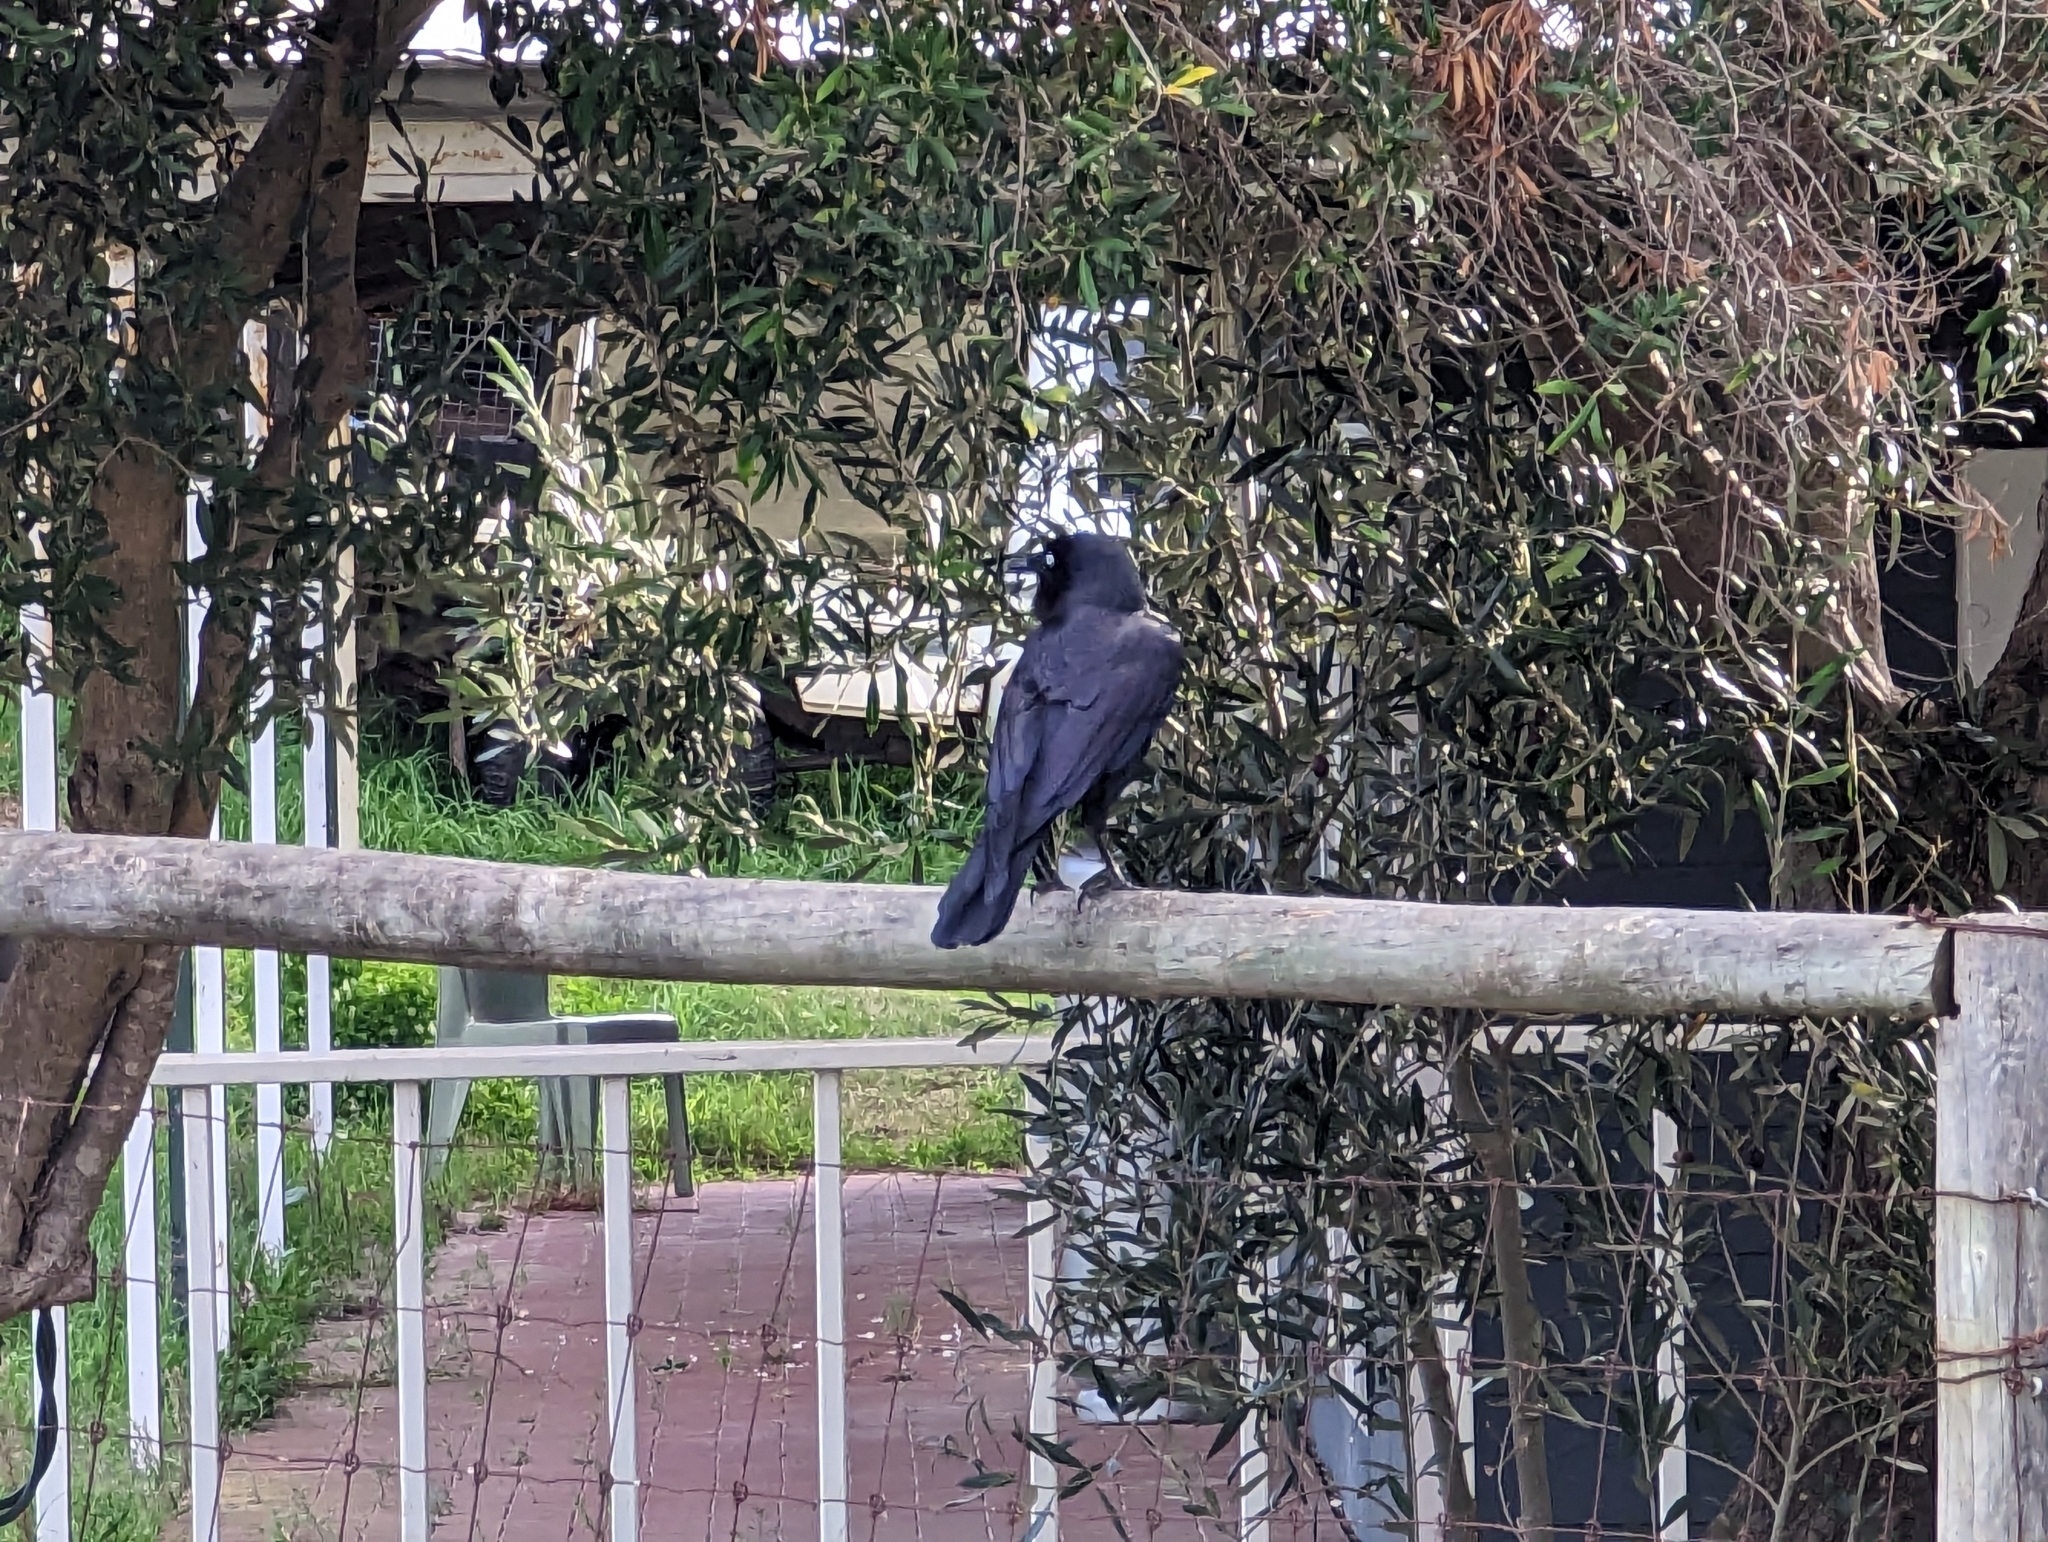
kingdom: Animalia
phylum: Chordata
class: Aves
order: Passeriformes
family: Corvidae
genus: Corvus
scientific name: Corvus coronoides
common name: Australian raven
